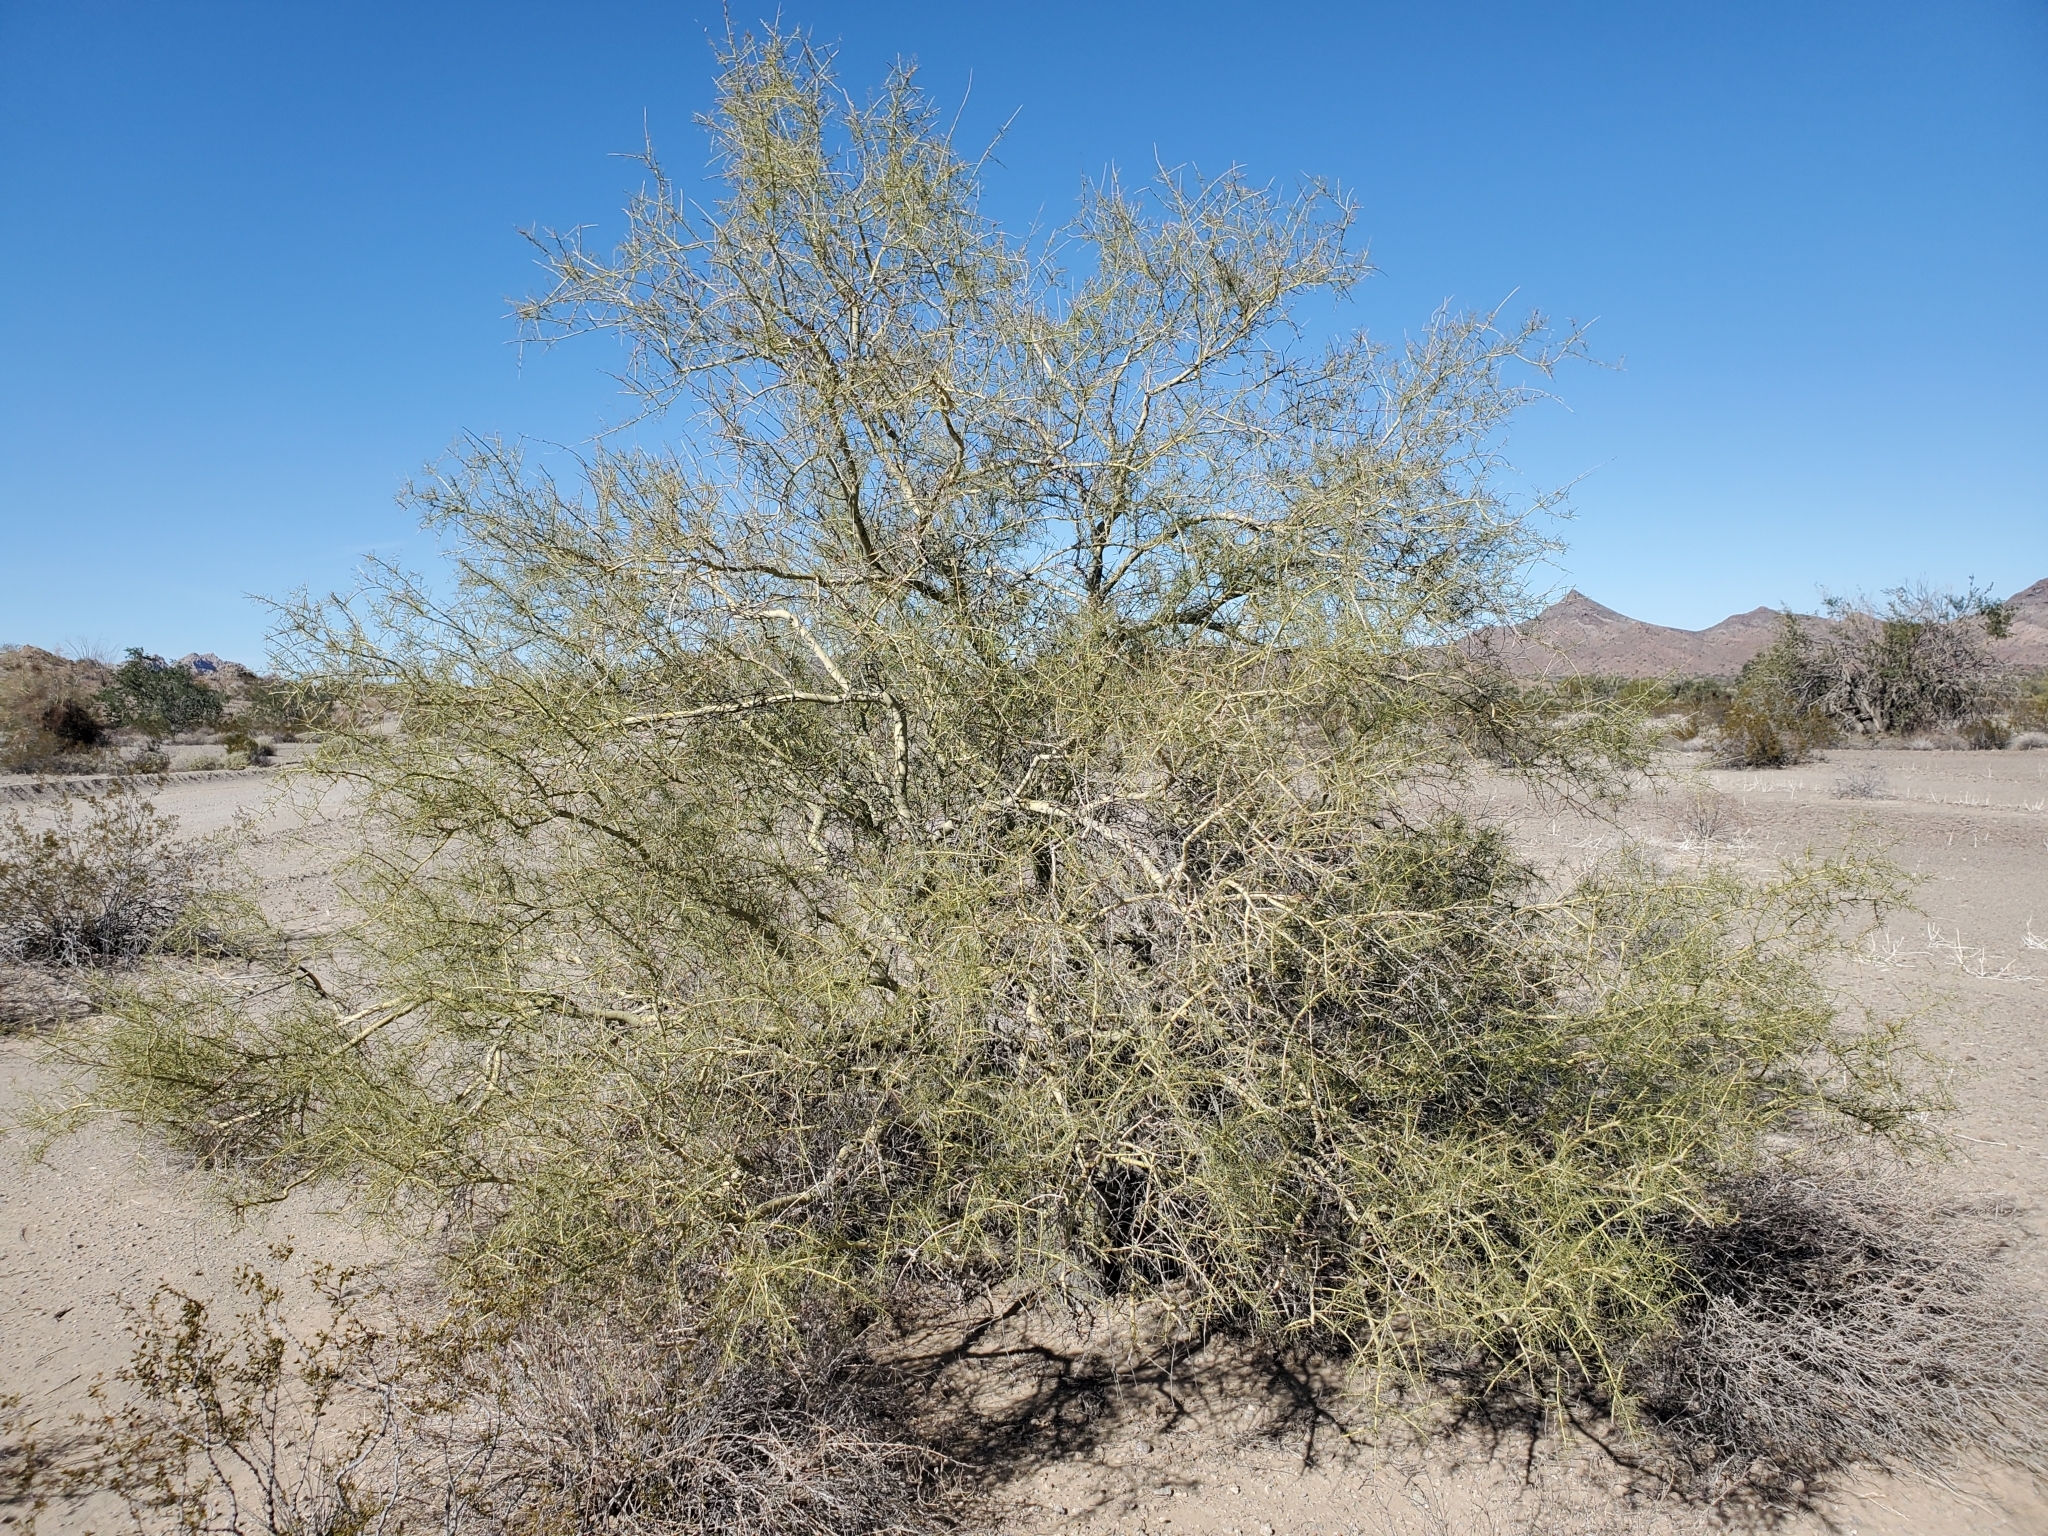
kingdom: Plantae
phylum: Tracheophyta
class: Magnoliopsida
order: Fabales
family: Fabaceae
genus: Parkinsonia
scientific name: Parkinsonia microphylla
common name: Yellow paloverde
